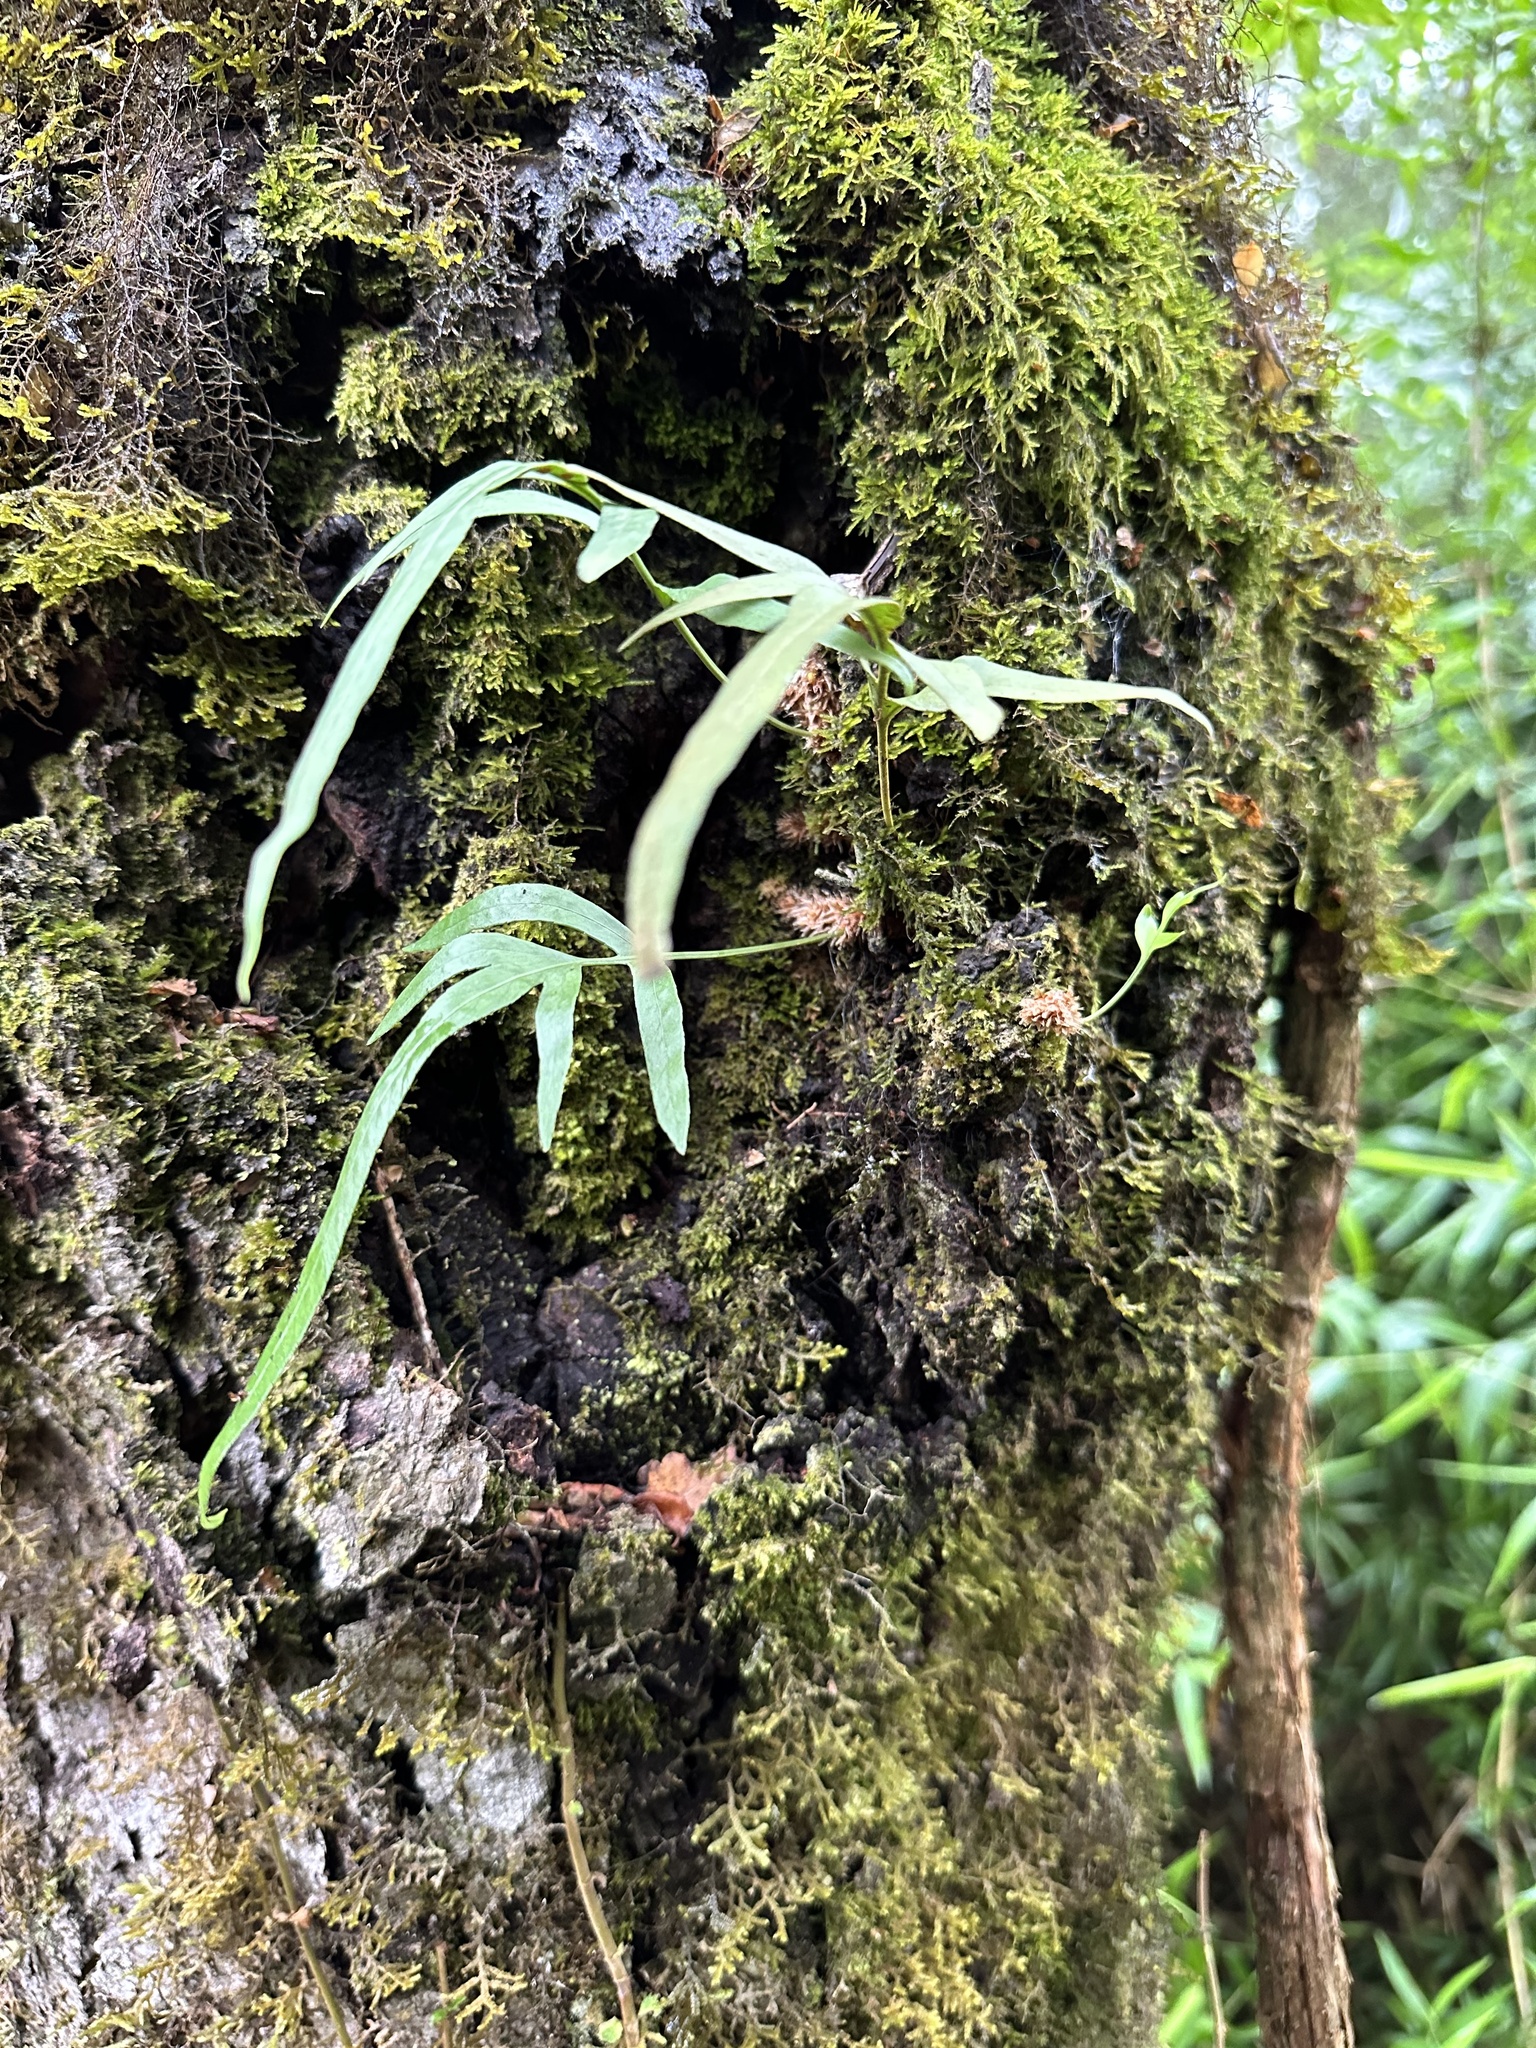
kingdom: Plantae
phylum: Tracheophyta
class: Polypodiopsida
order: Polypodiales
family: Polypodiaceae
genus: Synammia
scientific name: Synammia feuillei
